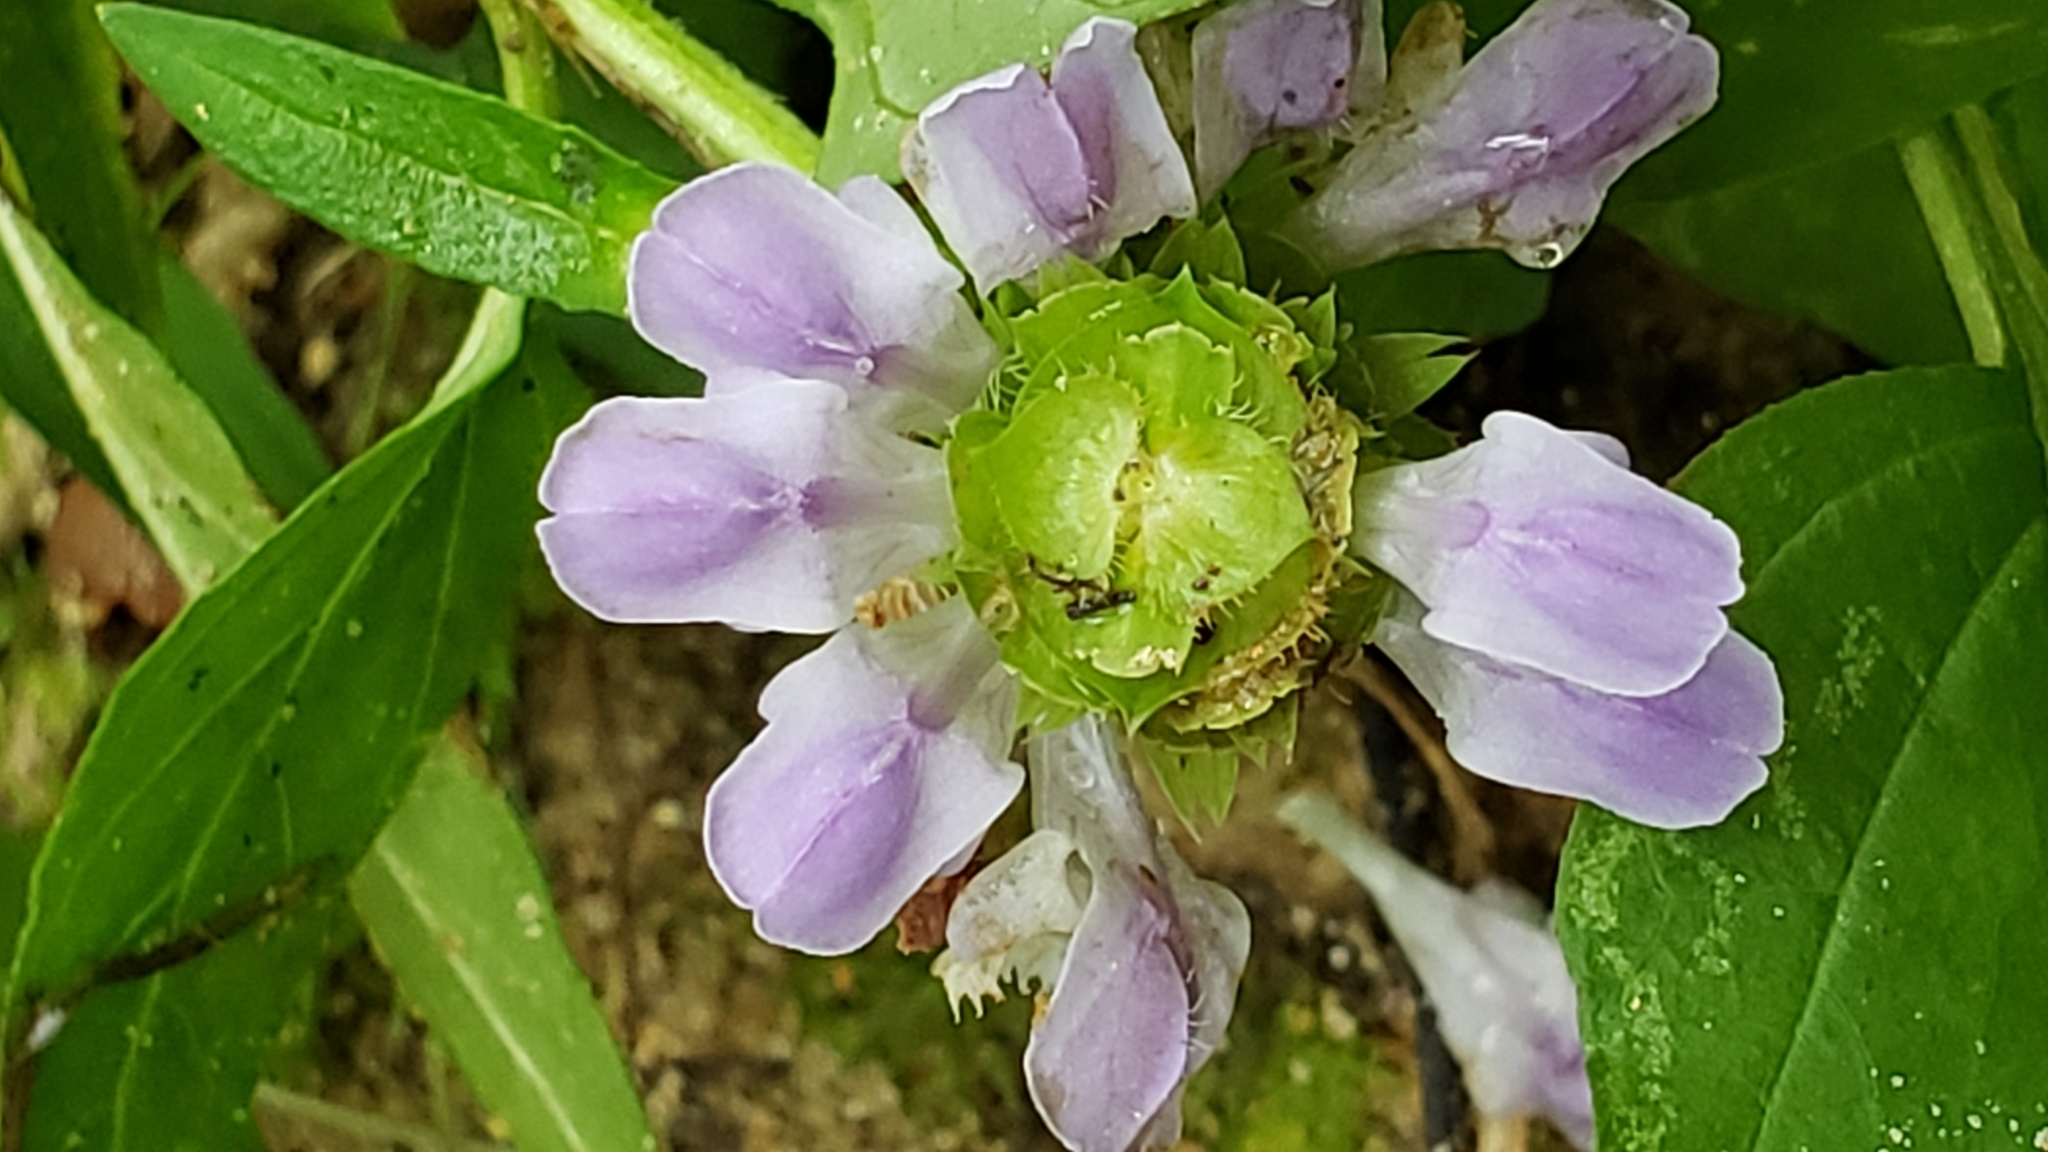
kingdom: Plantae
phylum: Tracheophyta
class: Magnoliopsida
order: Lamiales
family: Lamiaceae
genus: Prunella
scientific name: Prunella vulgaris
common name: Heal-all
